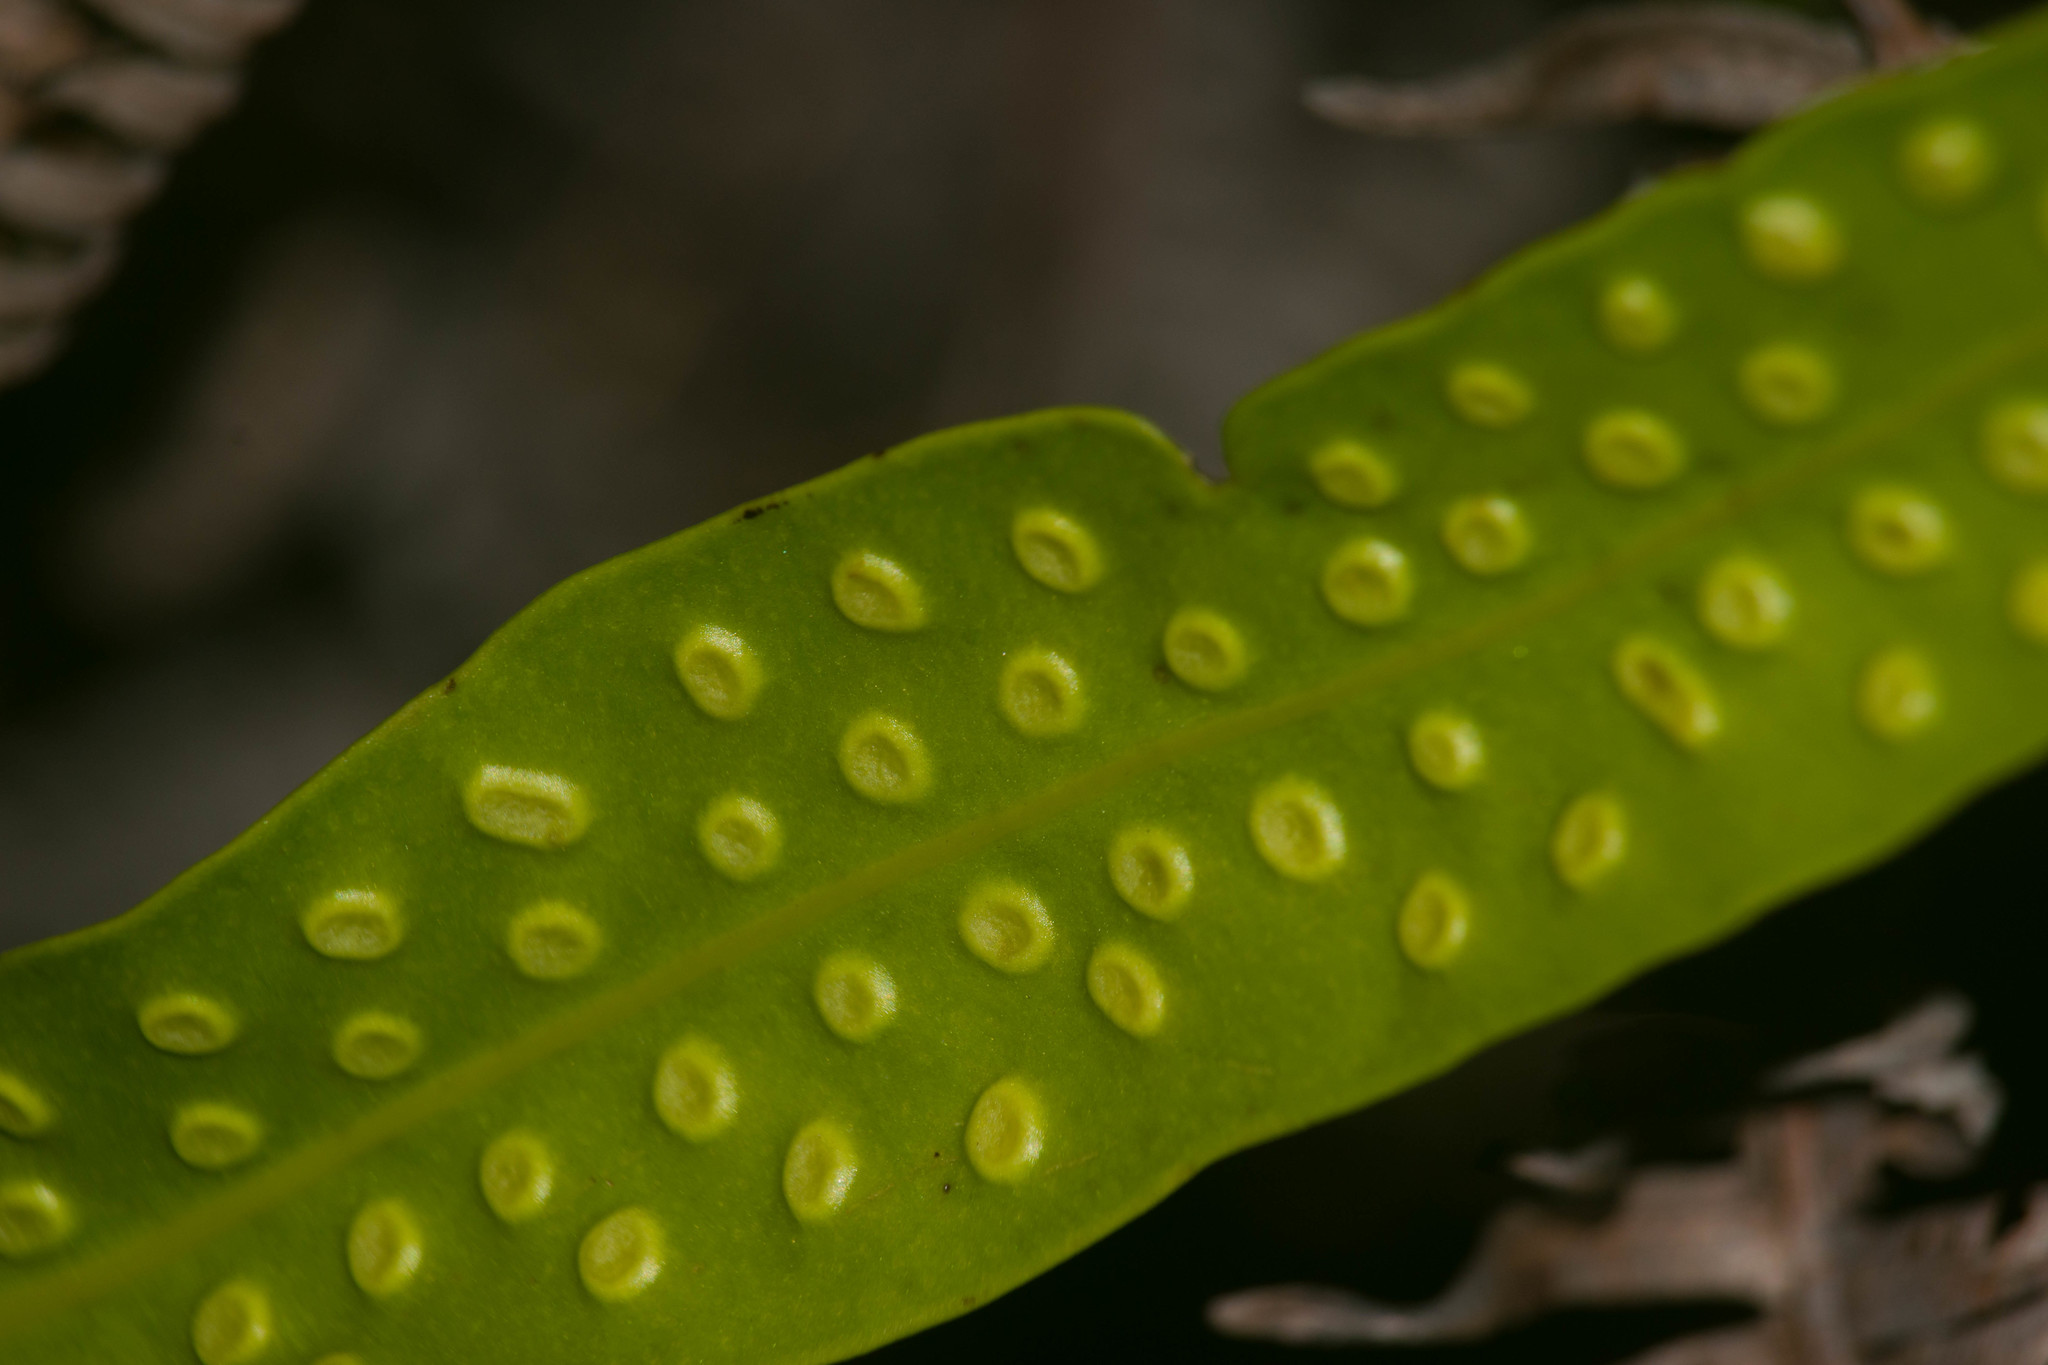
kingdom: Plantae
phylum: Tracheophyta
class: Polypodiopsida
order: Polypodiales
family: Polypodiaceae
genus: Microsorum
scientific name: Microsorum grossum
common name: Musk fern
